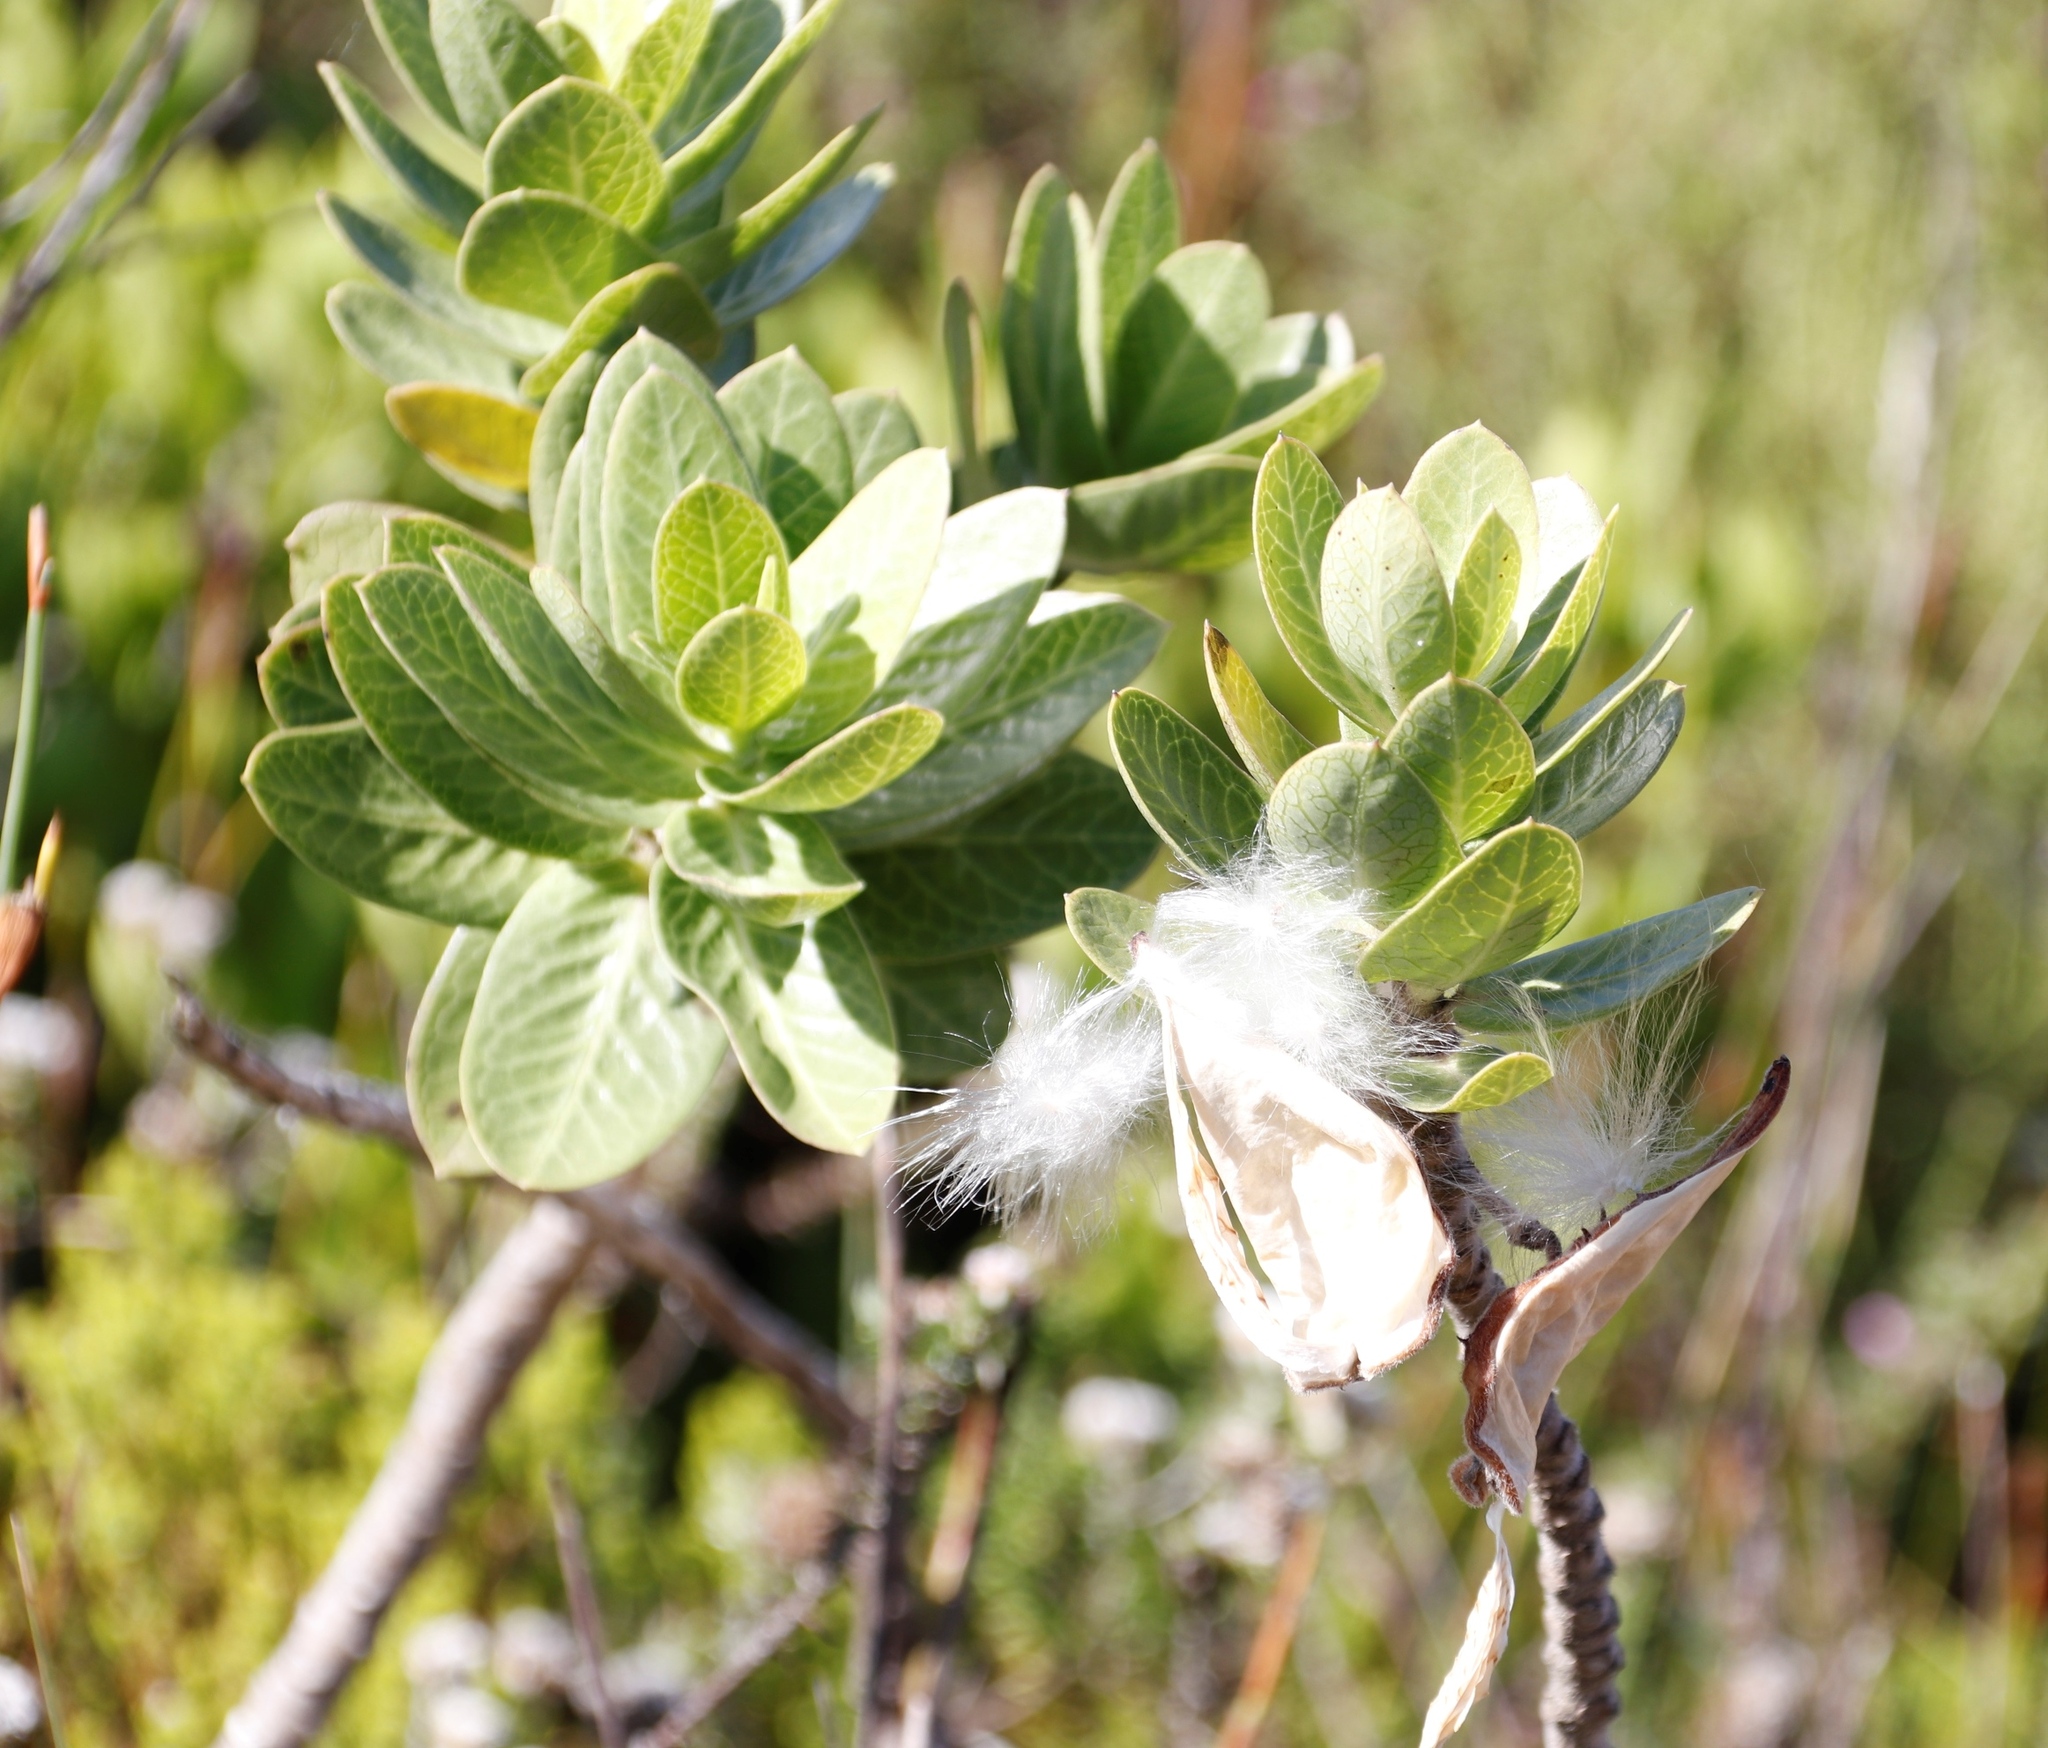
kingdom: Plantae
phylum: Tracheophyta
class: Magnoliopsida
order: Gentianales
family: Apocynaceae
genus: Gomphocarpus
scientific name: Gomphocarpus cancellatus
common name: Wild cotton
